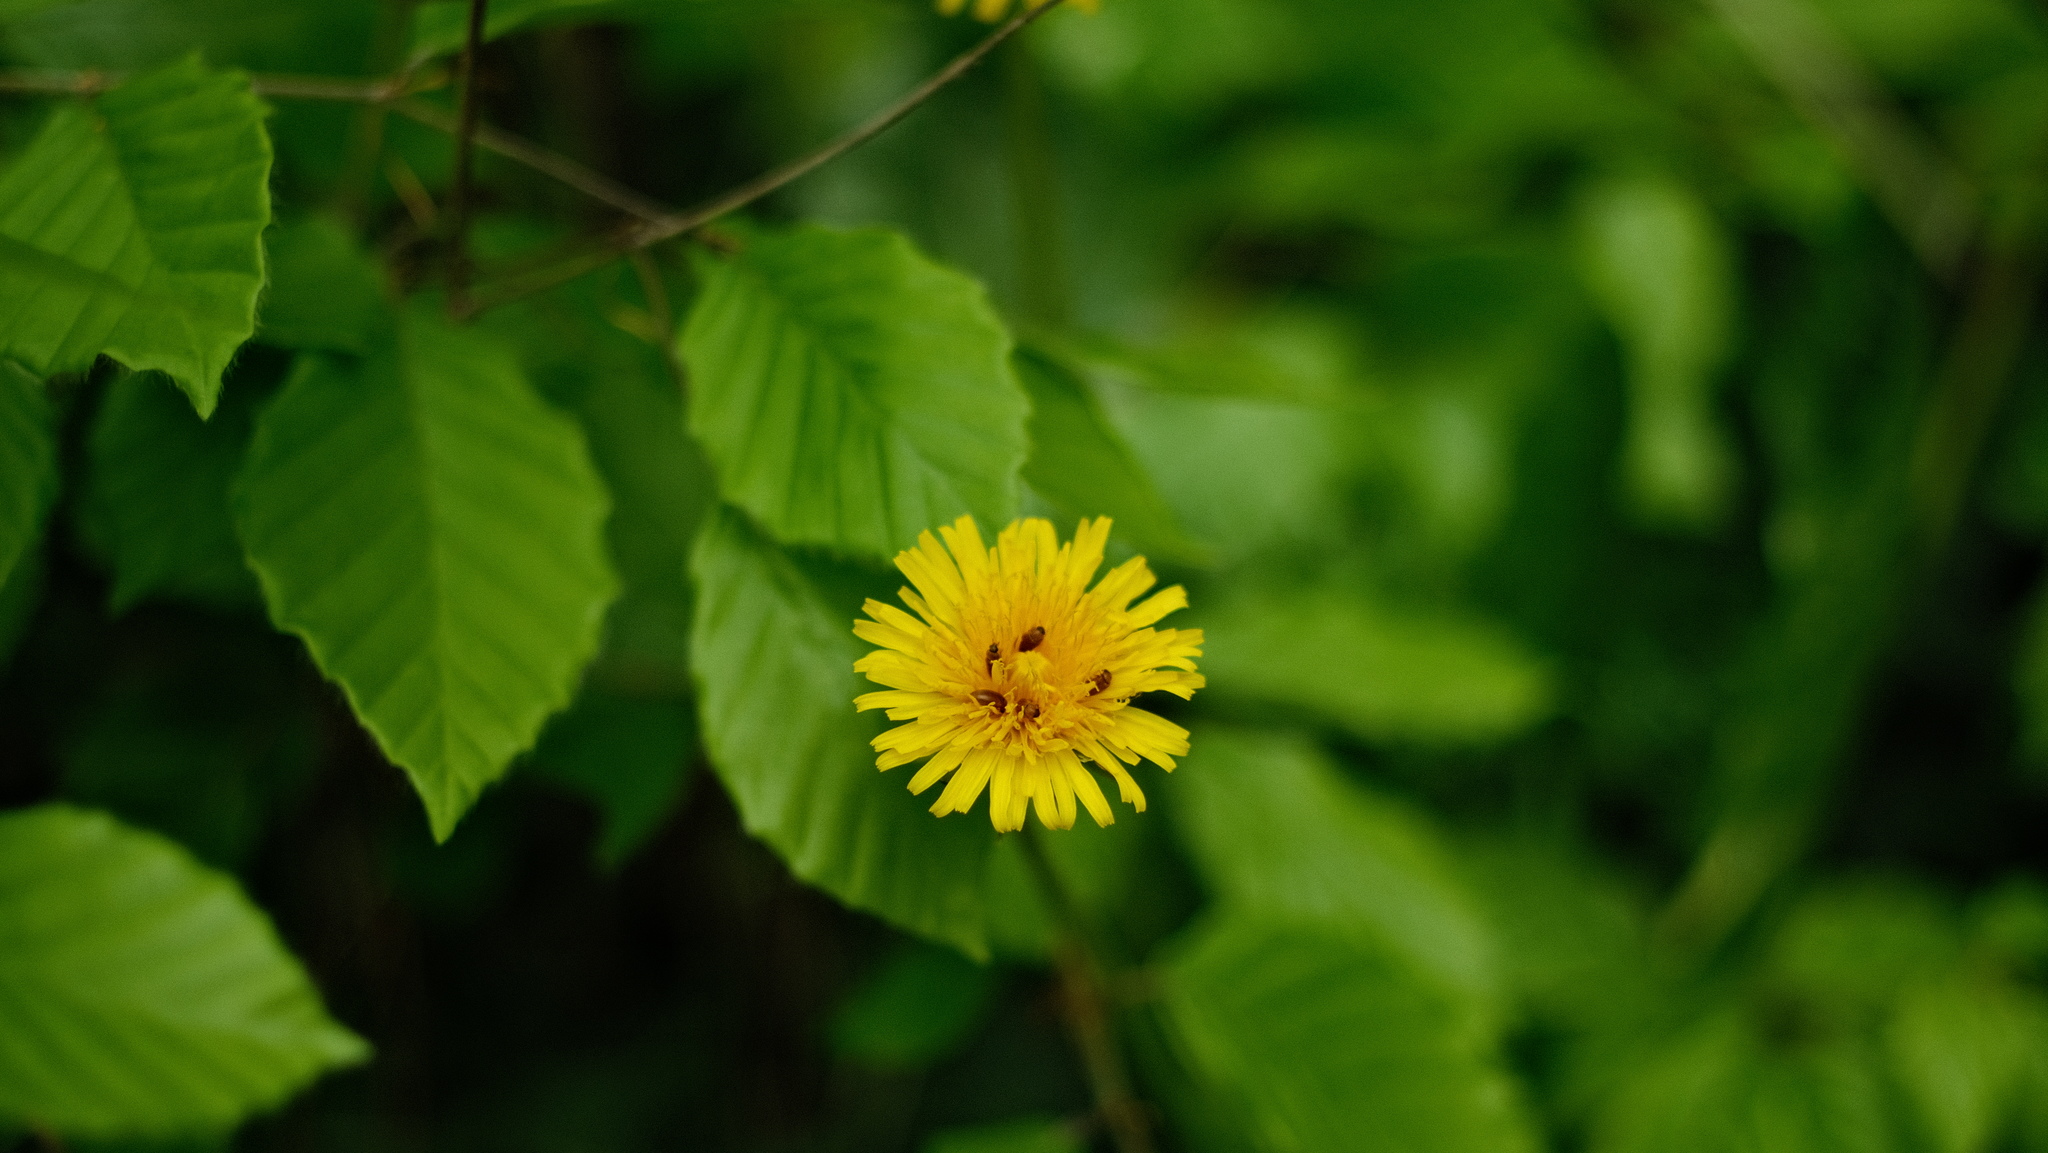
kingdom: Animalia
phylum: Arthropoda
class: Insecta
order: Coleoptera
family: Byturidae
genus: Byturus
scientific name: Byturus ochraceus
